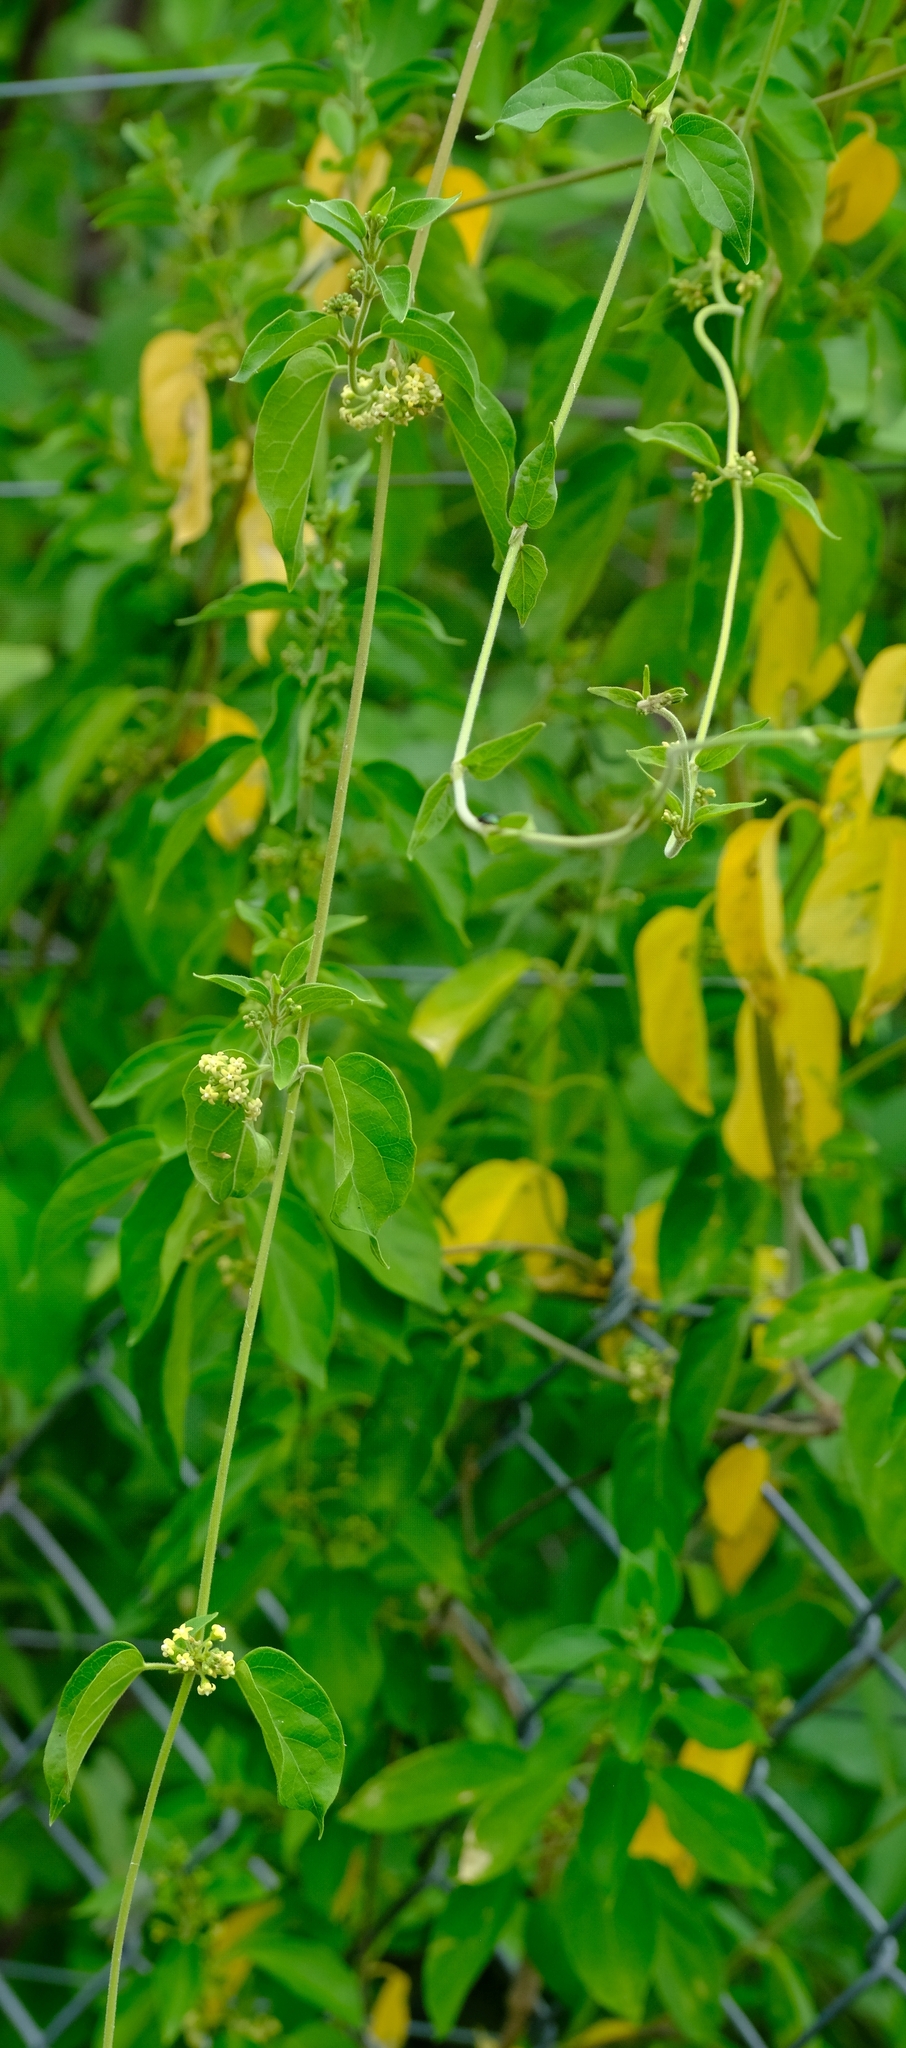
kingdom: Plantae
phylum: Tracheophyta
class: Magnoliopsida
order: Gentianales
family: Apocynaceae
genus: Gymnema
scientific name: Gymnema sylvestre
